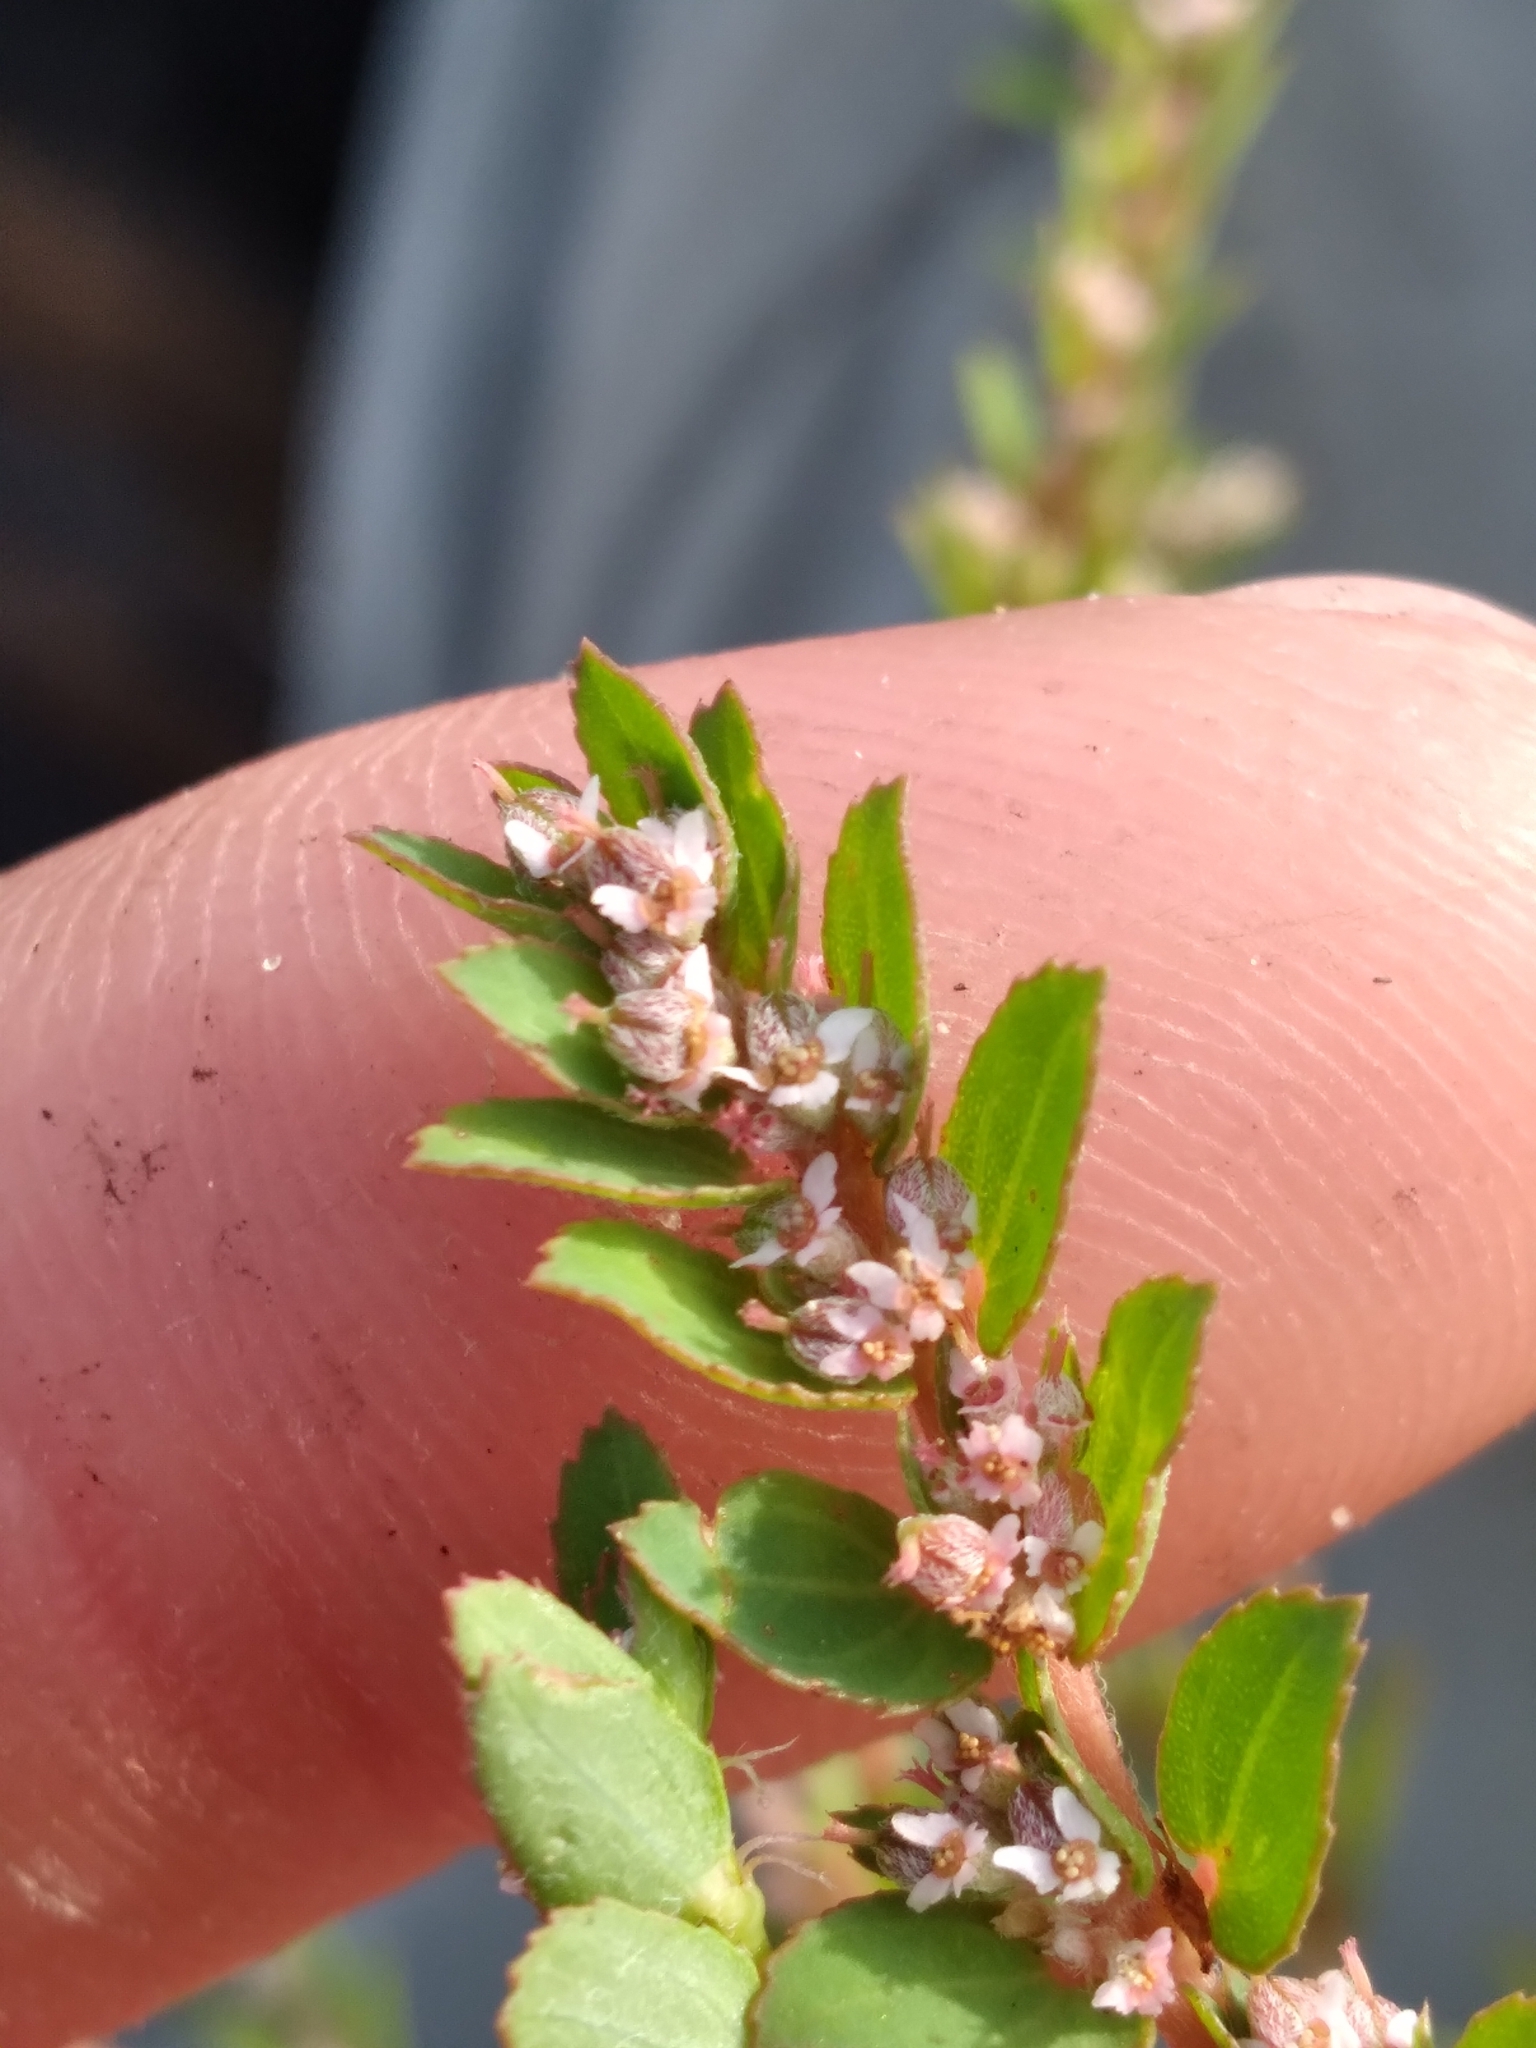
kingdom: Plantae
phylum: Tracheophyta
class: Magnoliopsida
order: Malpighiales
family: Euphorbiaceae
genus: Euphorbia
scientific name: Euphorbia thymifolia
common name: Gulf sandmat
